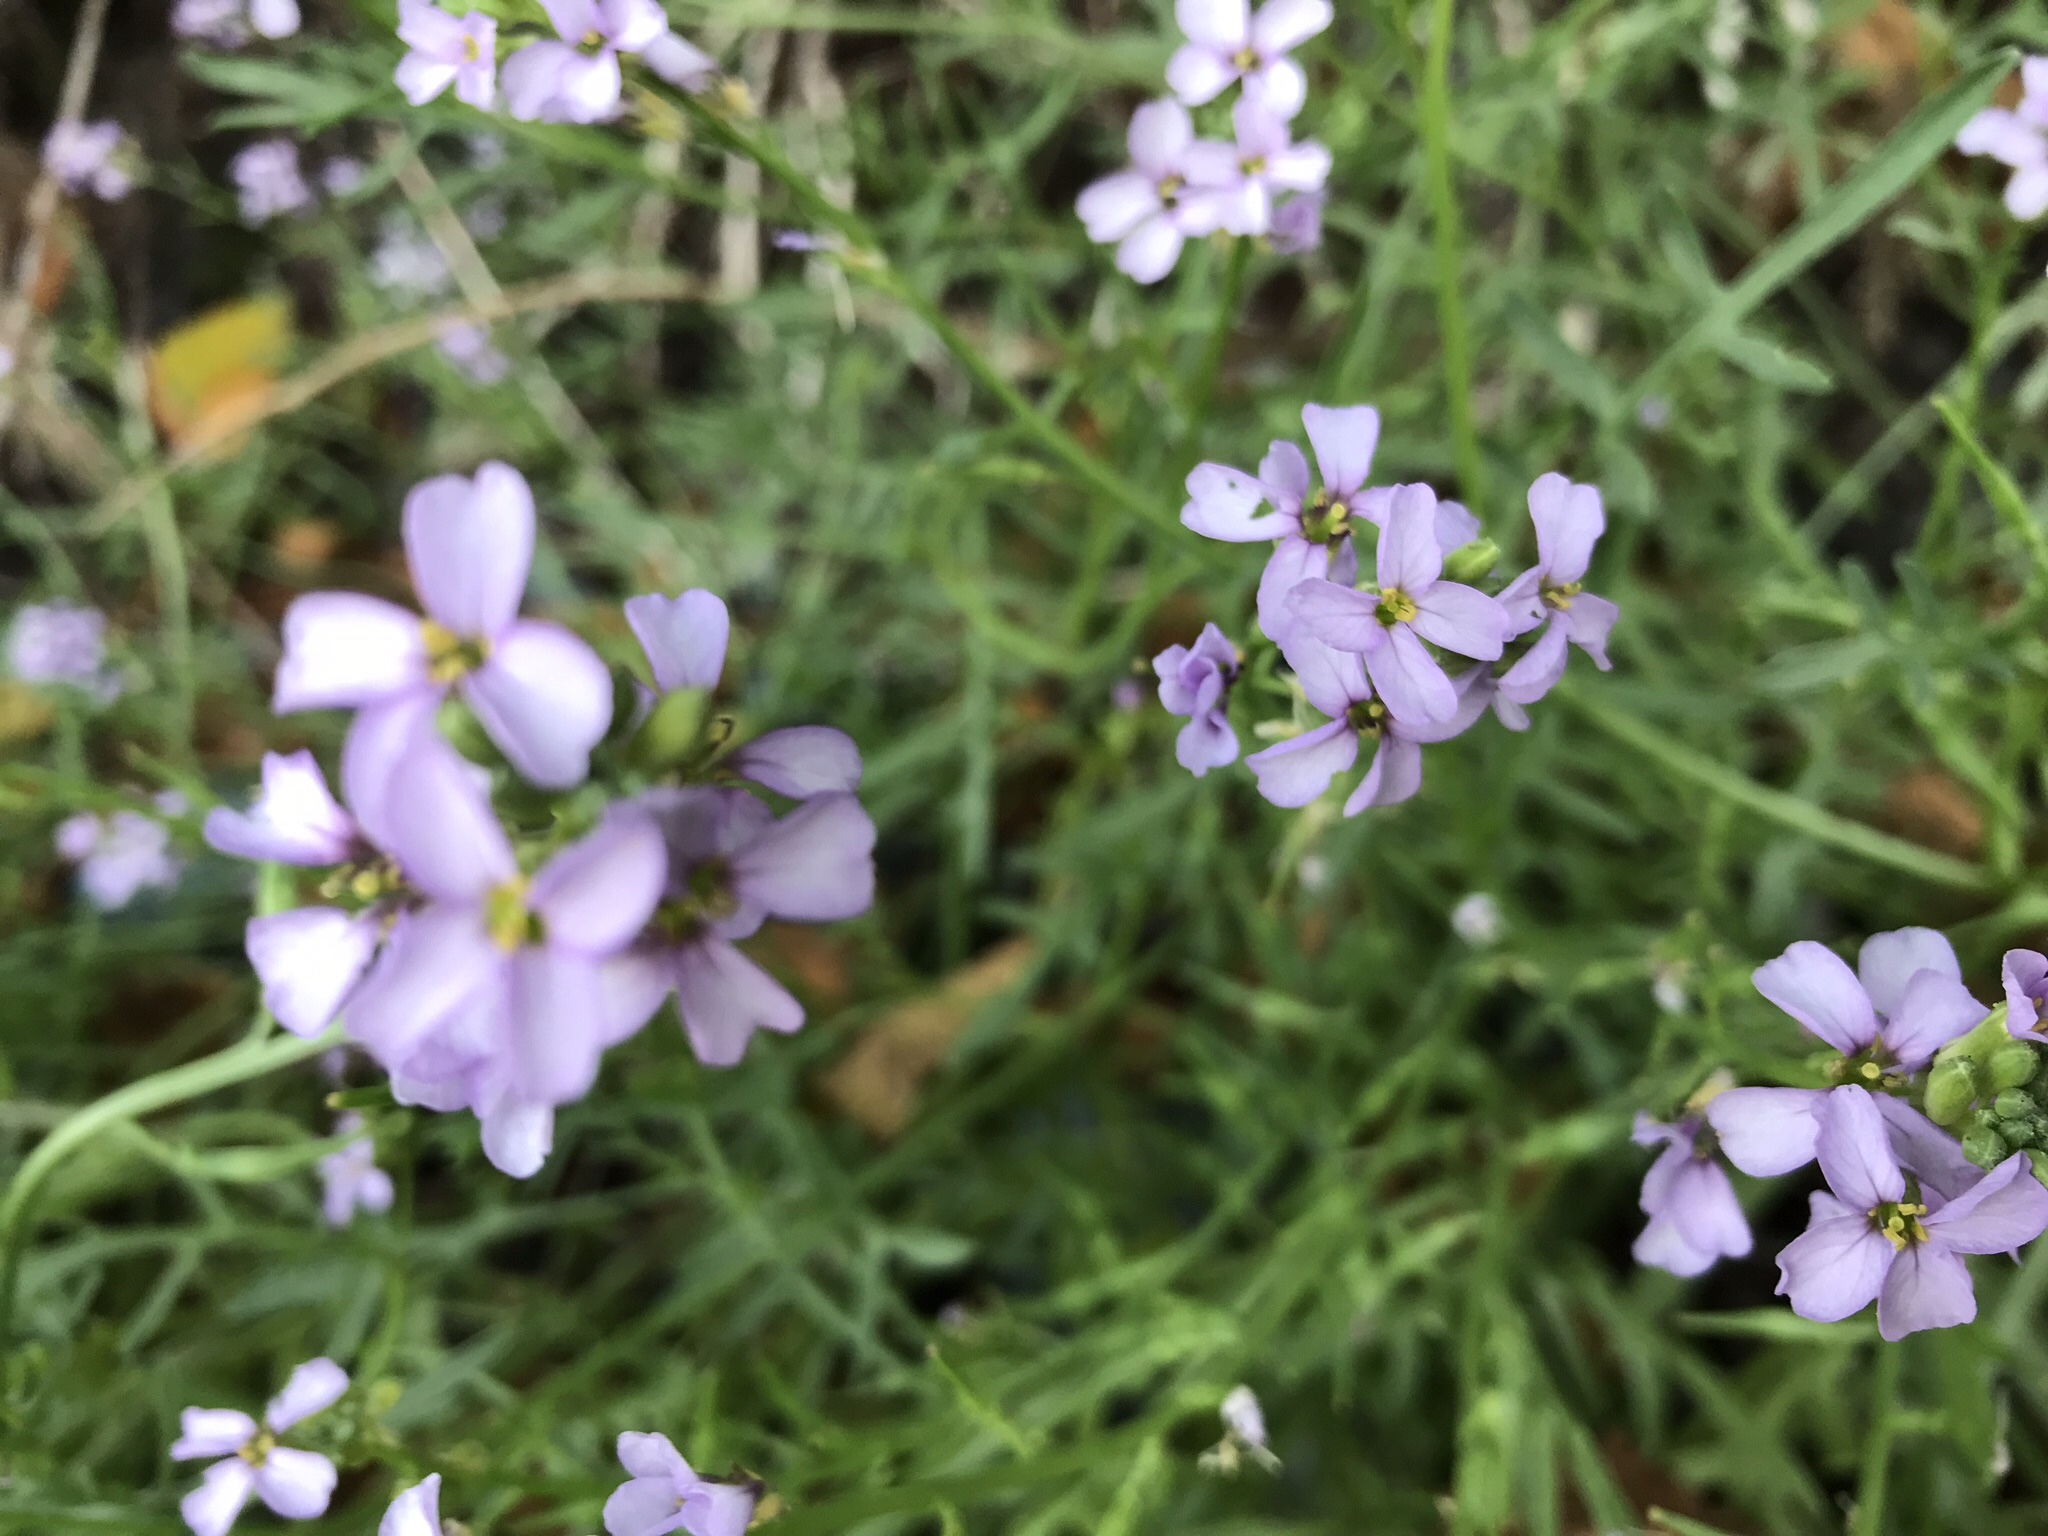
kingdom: Plantae
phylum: Tracheophyta
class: Magnoliopsida
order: Brassicales
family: Brassicaceae
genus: Cakile
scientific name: Cakile maritima
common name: Sea rocket
